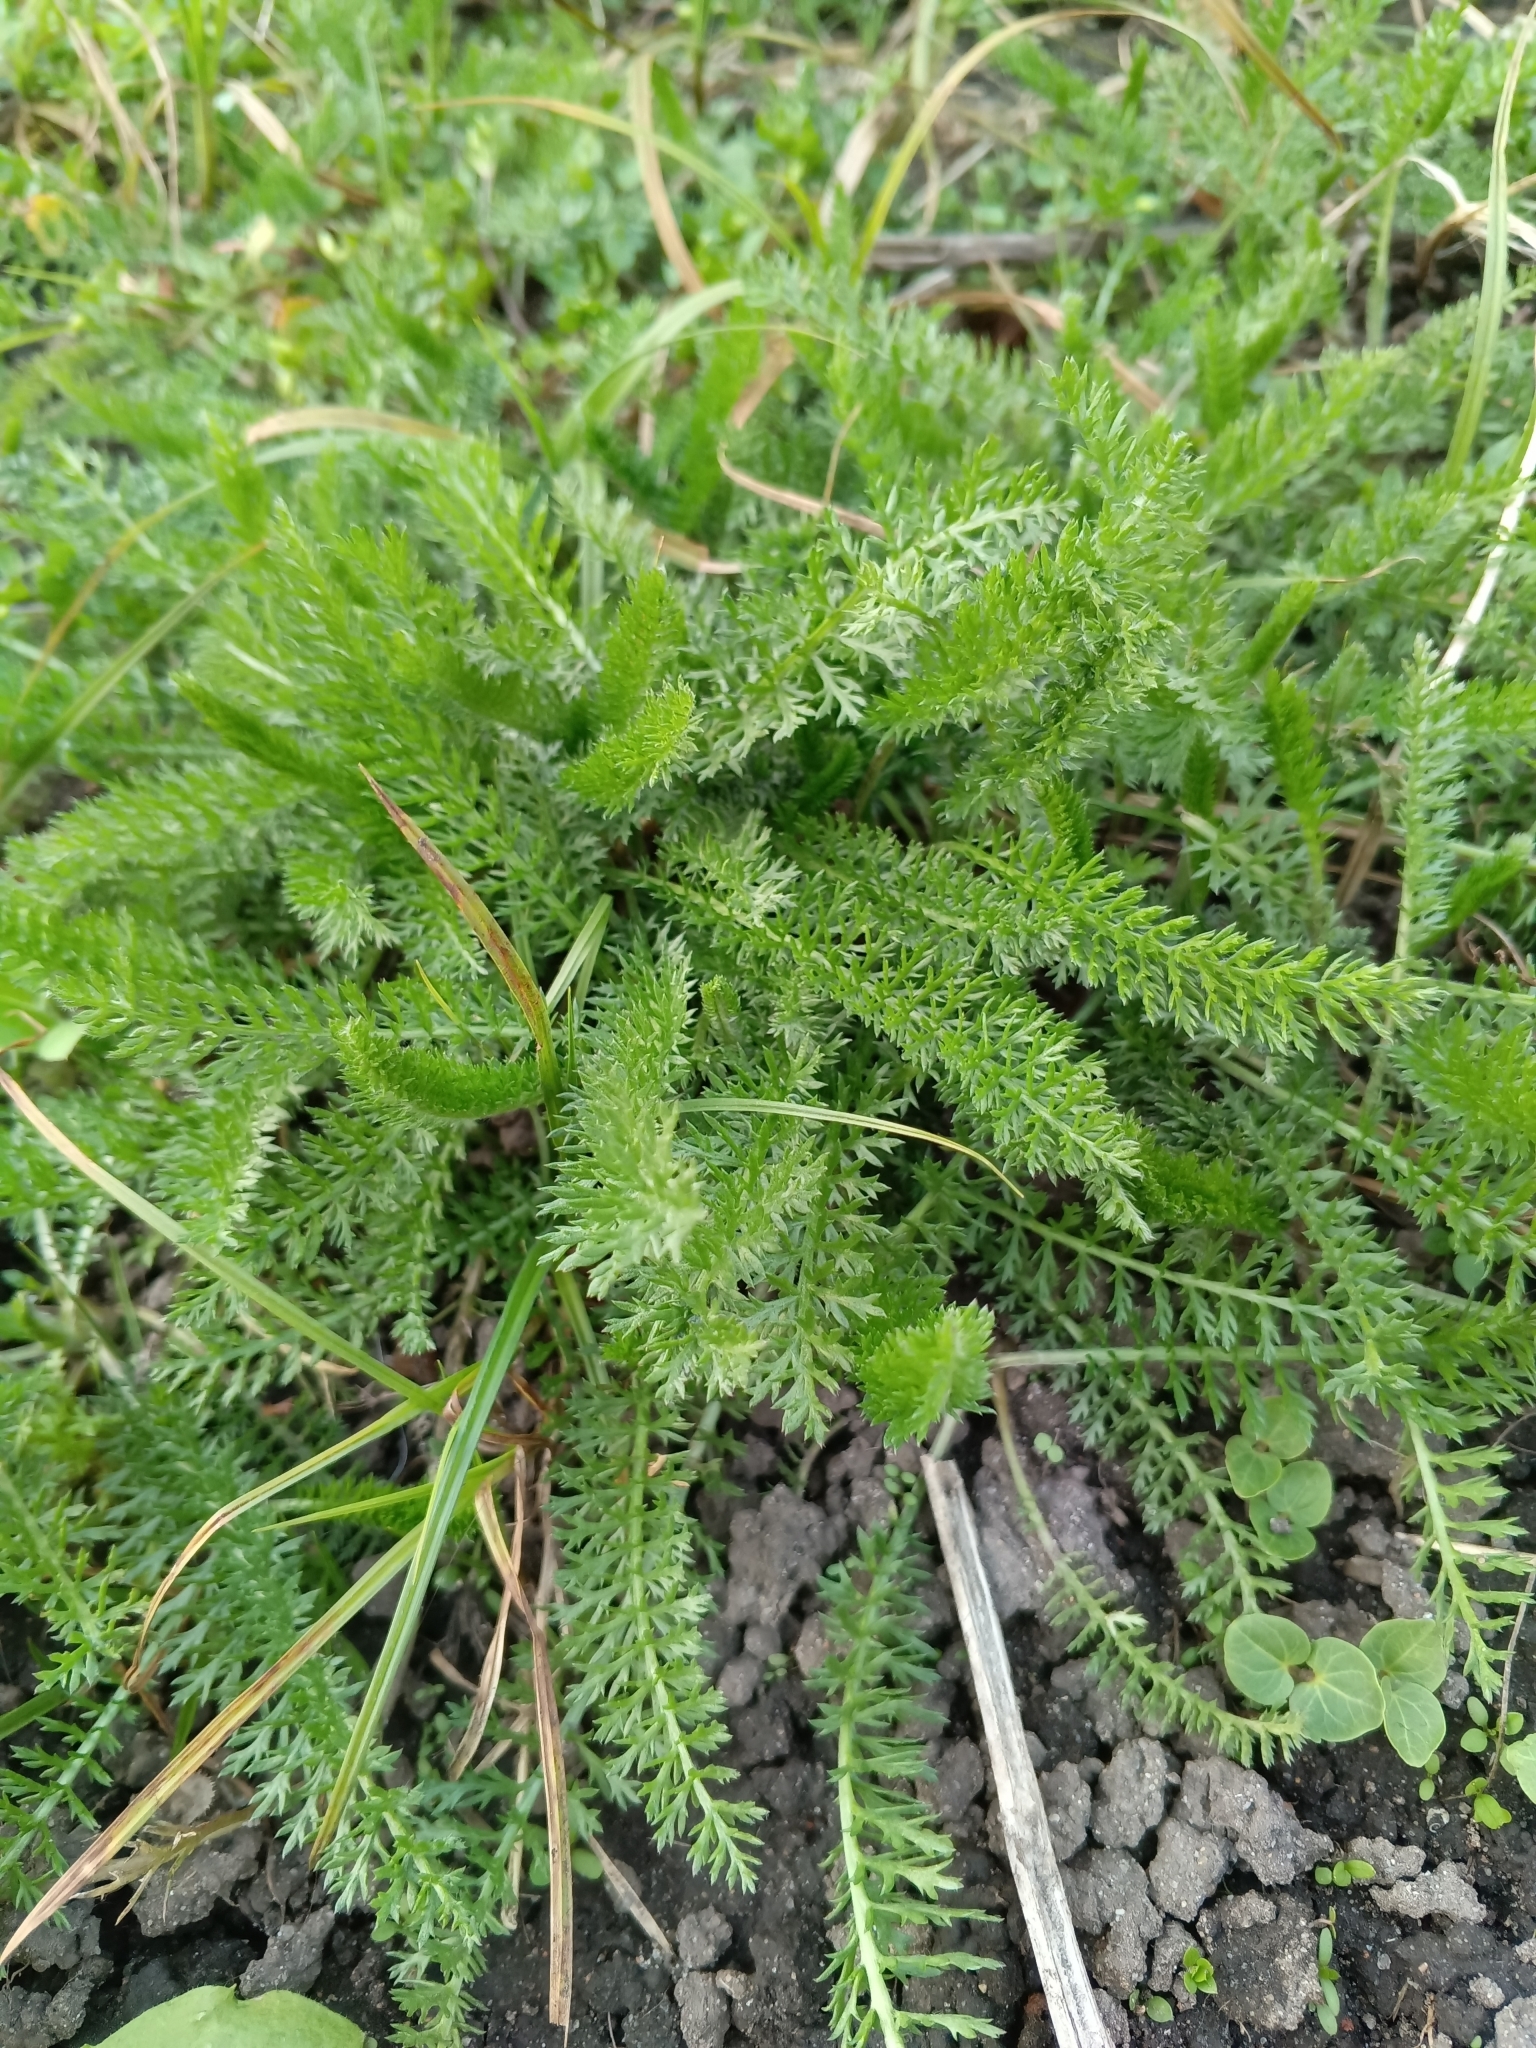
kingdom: Plantae
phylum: Tracheophyta
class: Magnoliopsida
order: Asterales
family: Asteraceae
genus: Achillea
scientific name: Achillea millefolium
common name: Yarrow
